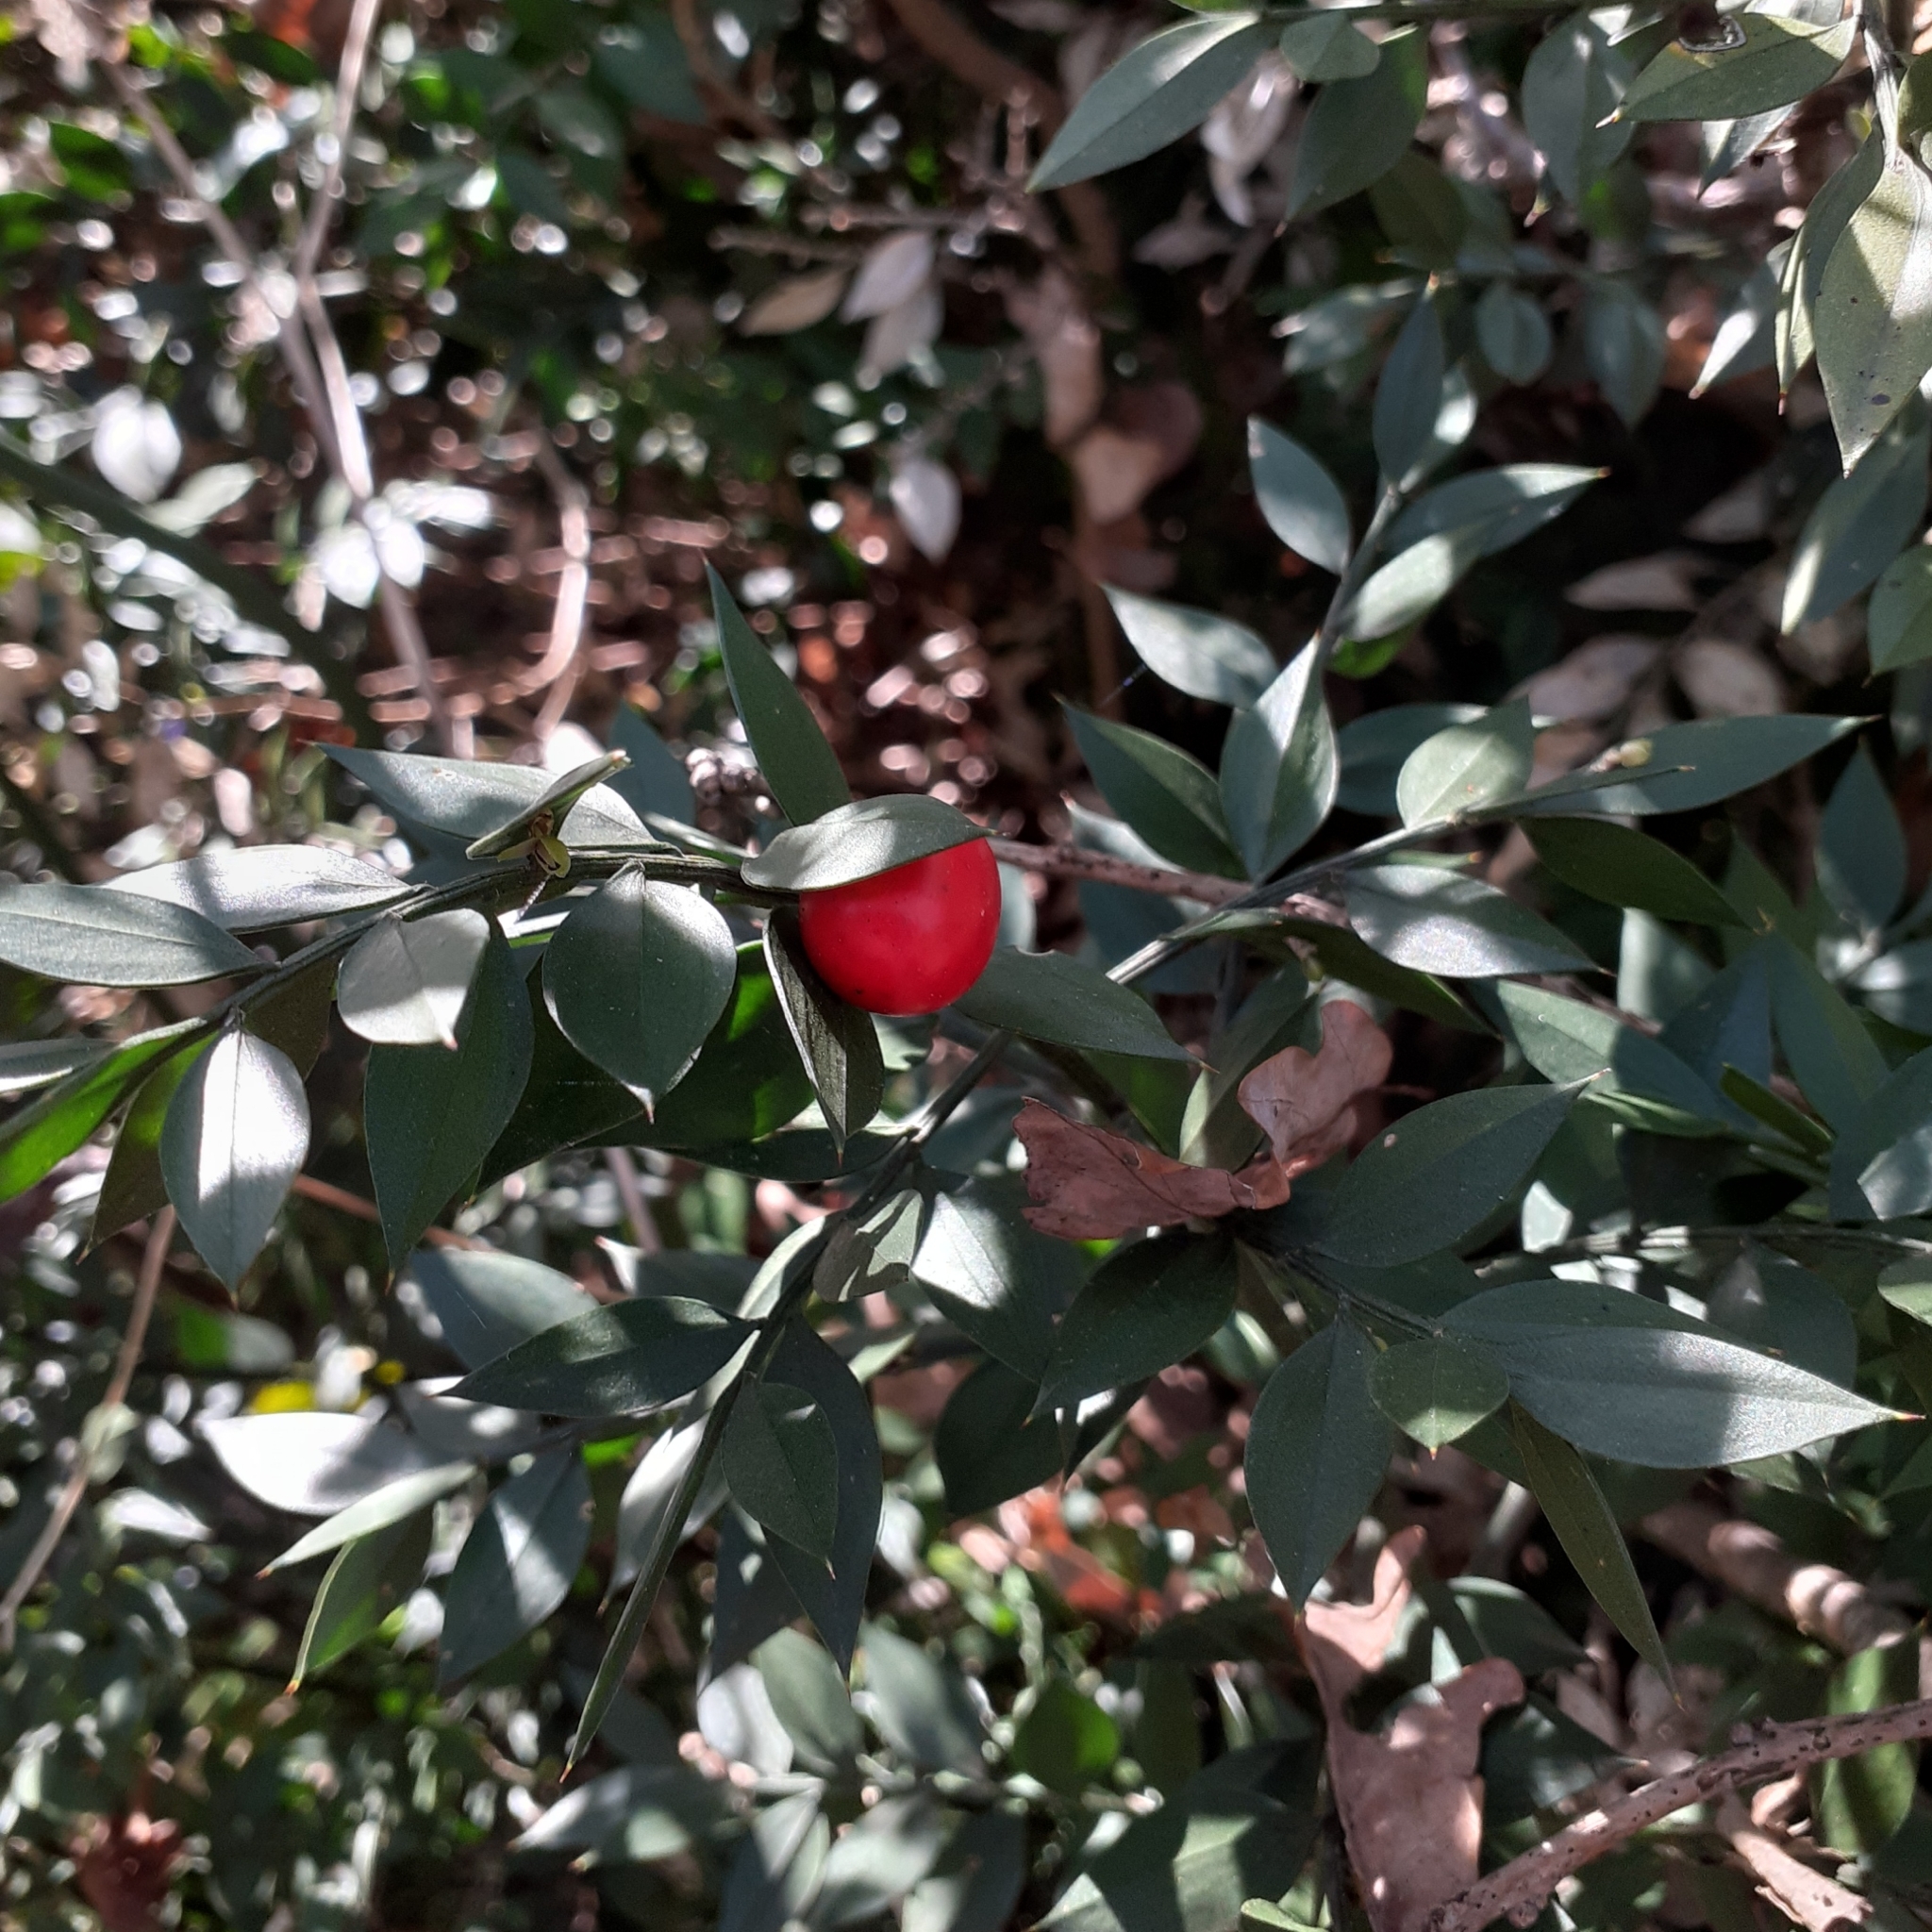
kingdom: Plantae
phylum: Tracheophyta
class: Liliopsida
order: Asparagales
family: Asparagaceae
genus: Ruscus
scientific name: Ruscus aculeatus
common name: Butcher's-broom
